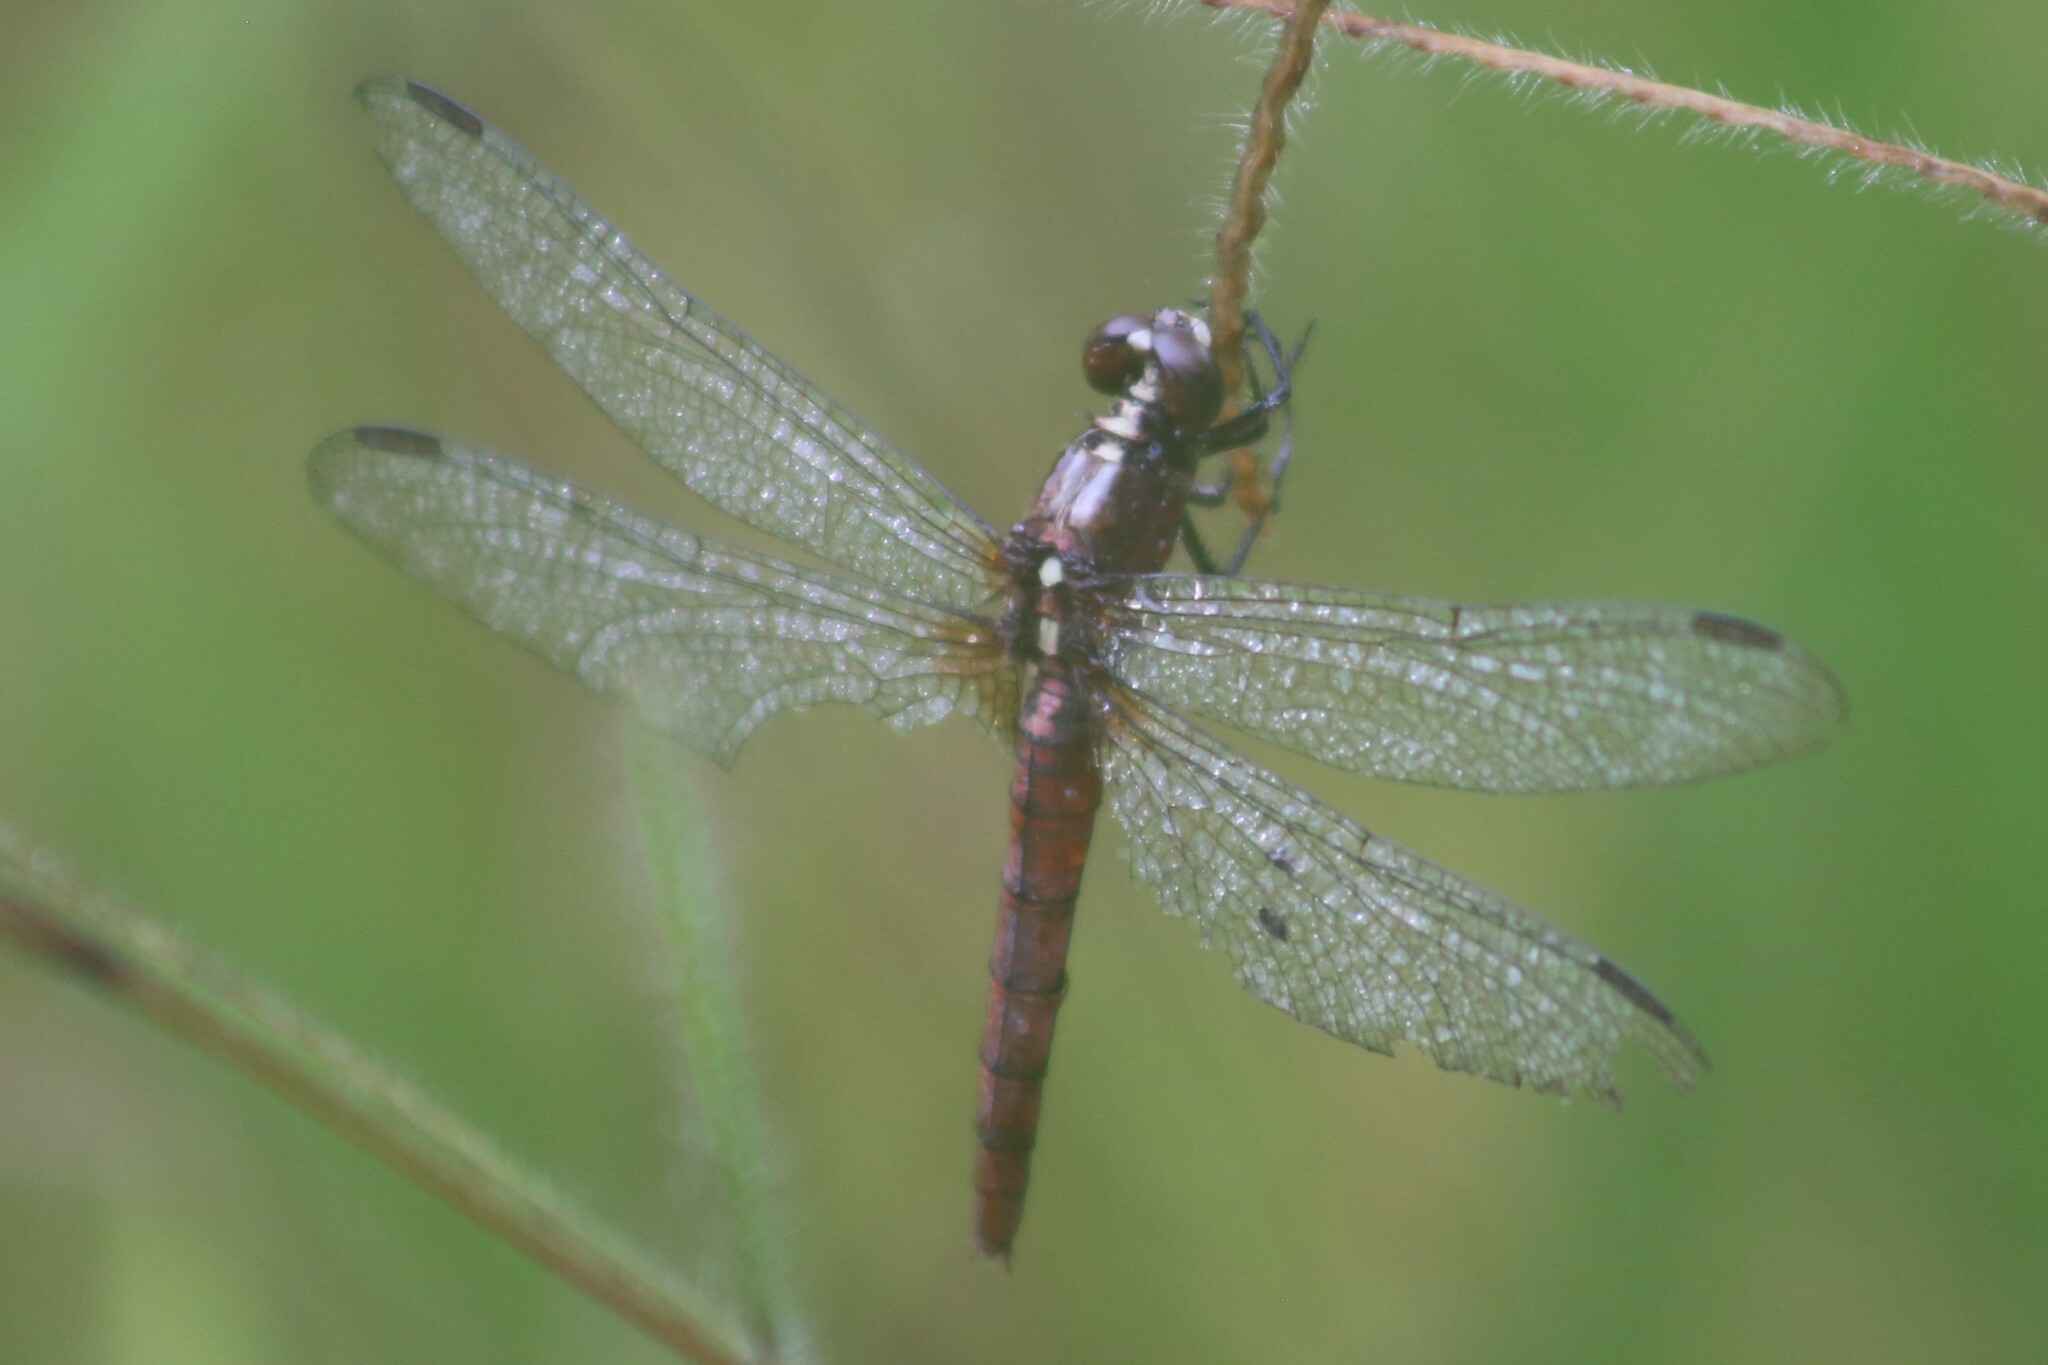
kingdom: Animalia
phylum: Arthropoda
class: Insecta
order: Odonata
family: Libellulidae
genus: Rhodothemis
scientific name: Rhodothemis lieftincki
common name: Red arrow
